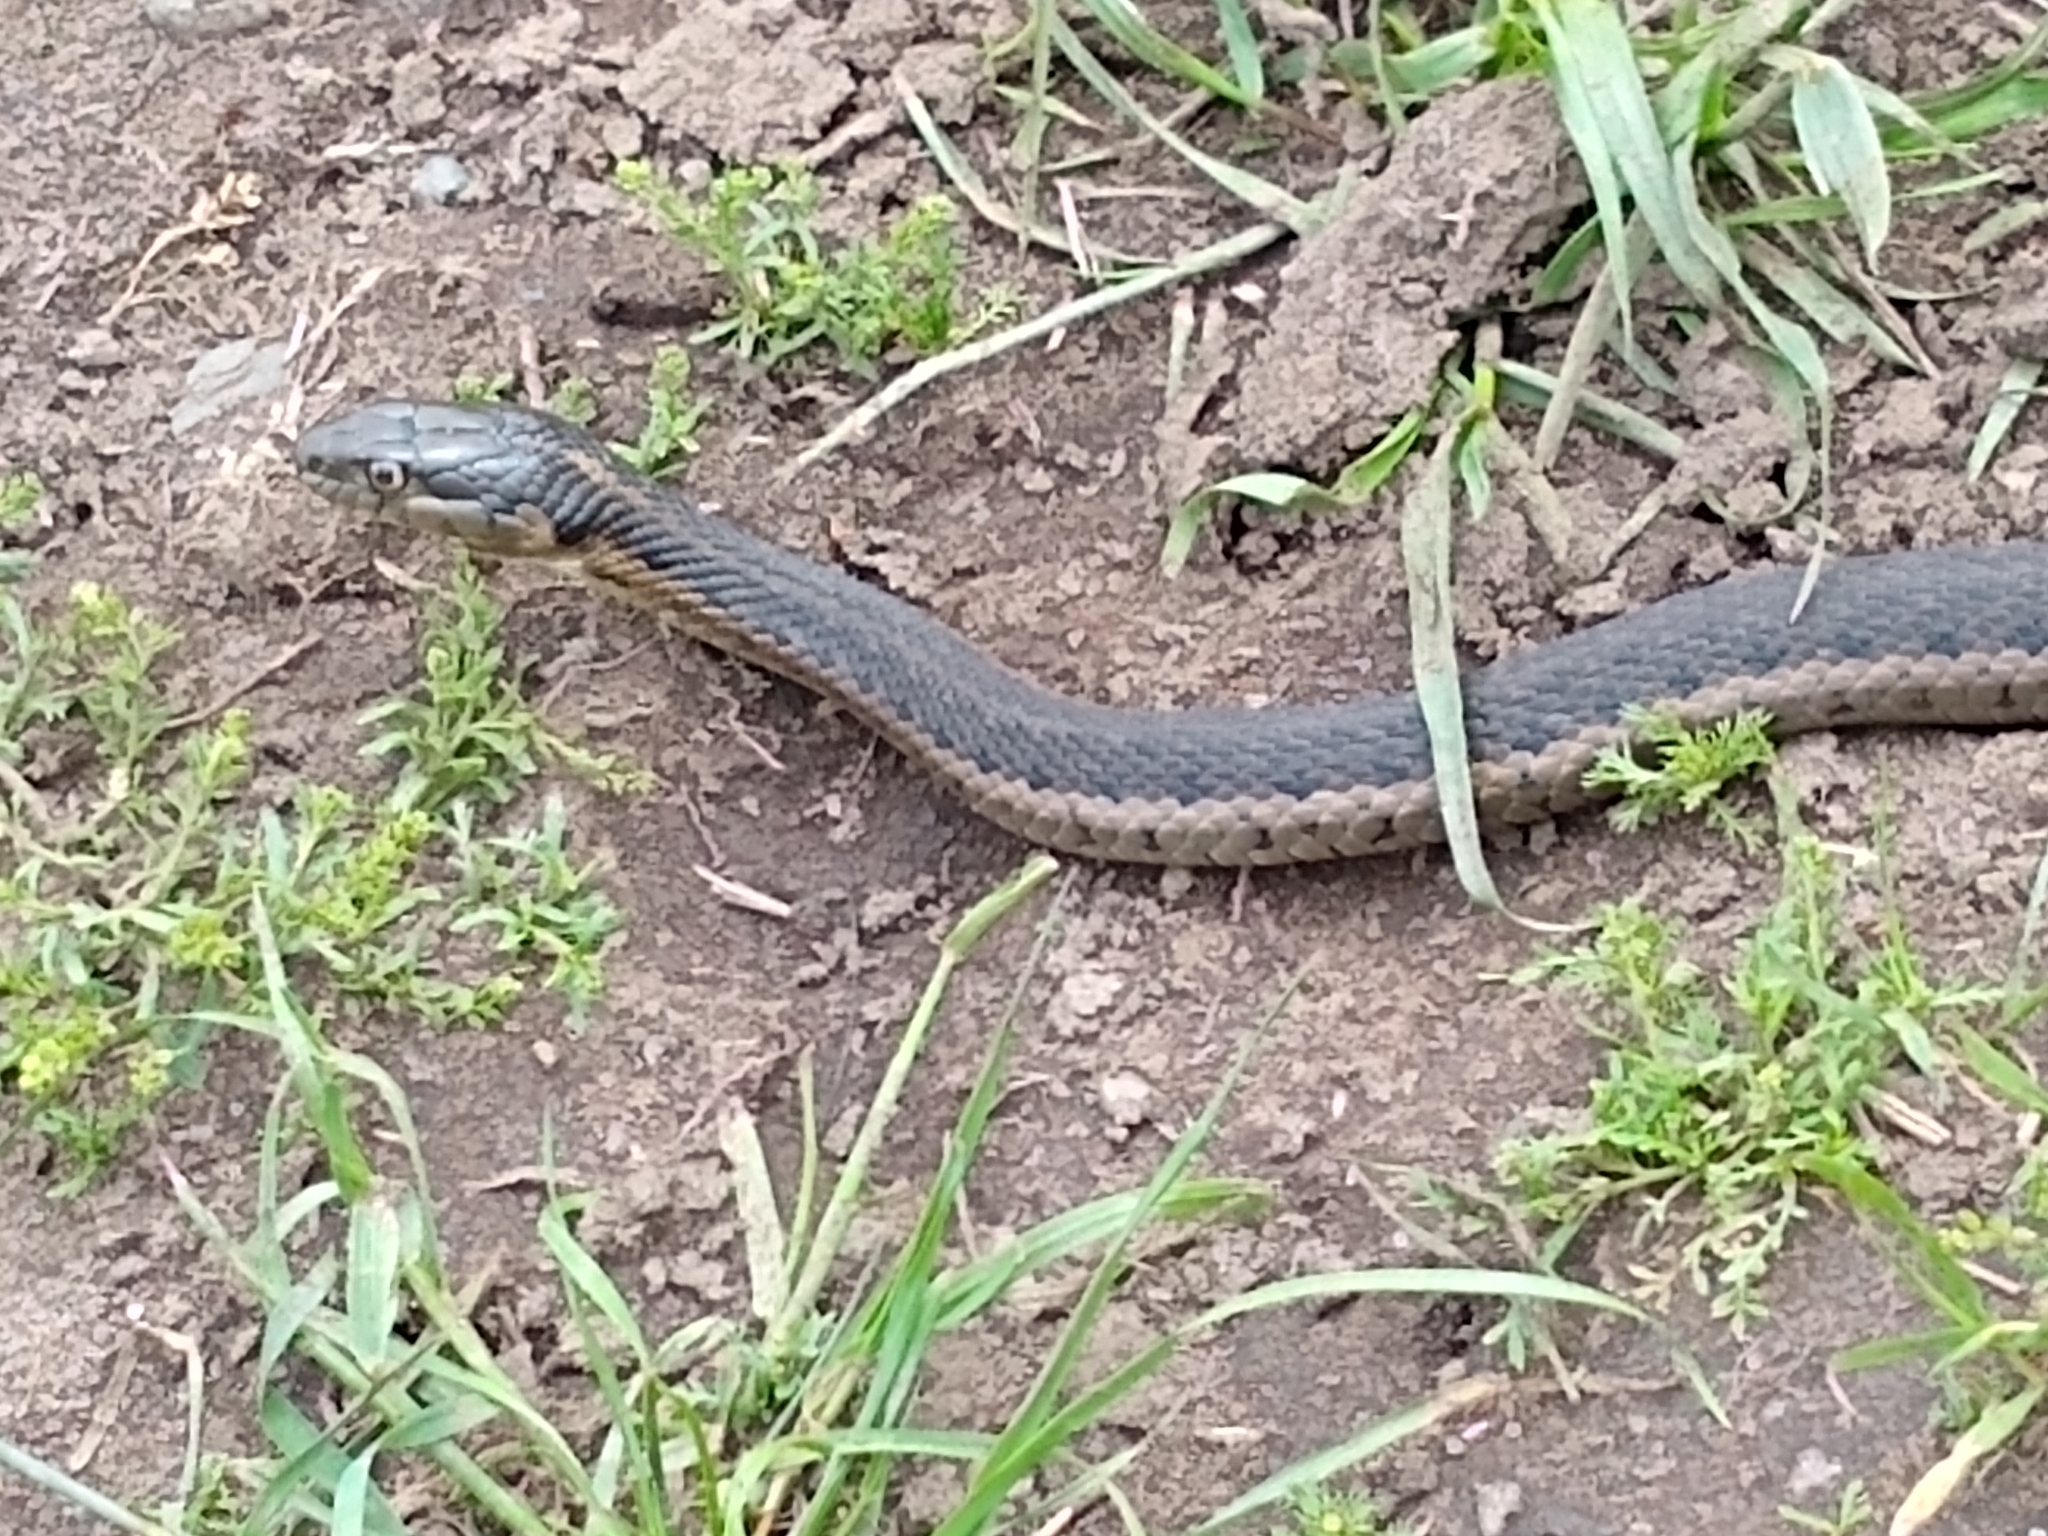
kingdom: Animalia
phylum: Chordata
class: Squamata
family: Colubridae
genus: Thamnophis
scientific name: Thamnophis couchii
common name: Western aquatic garter snake
